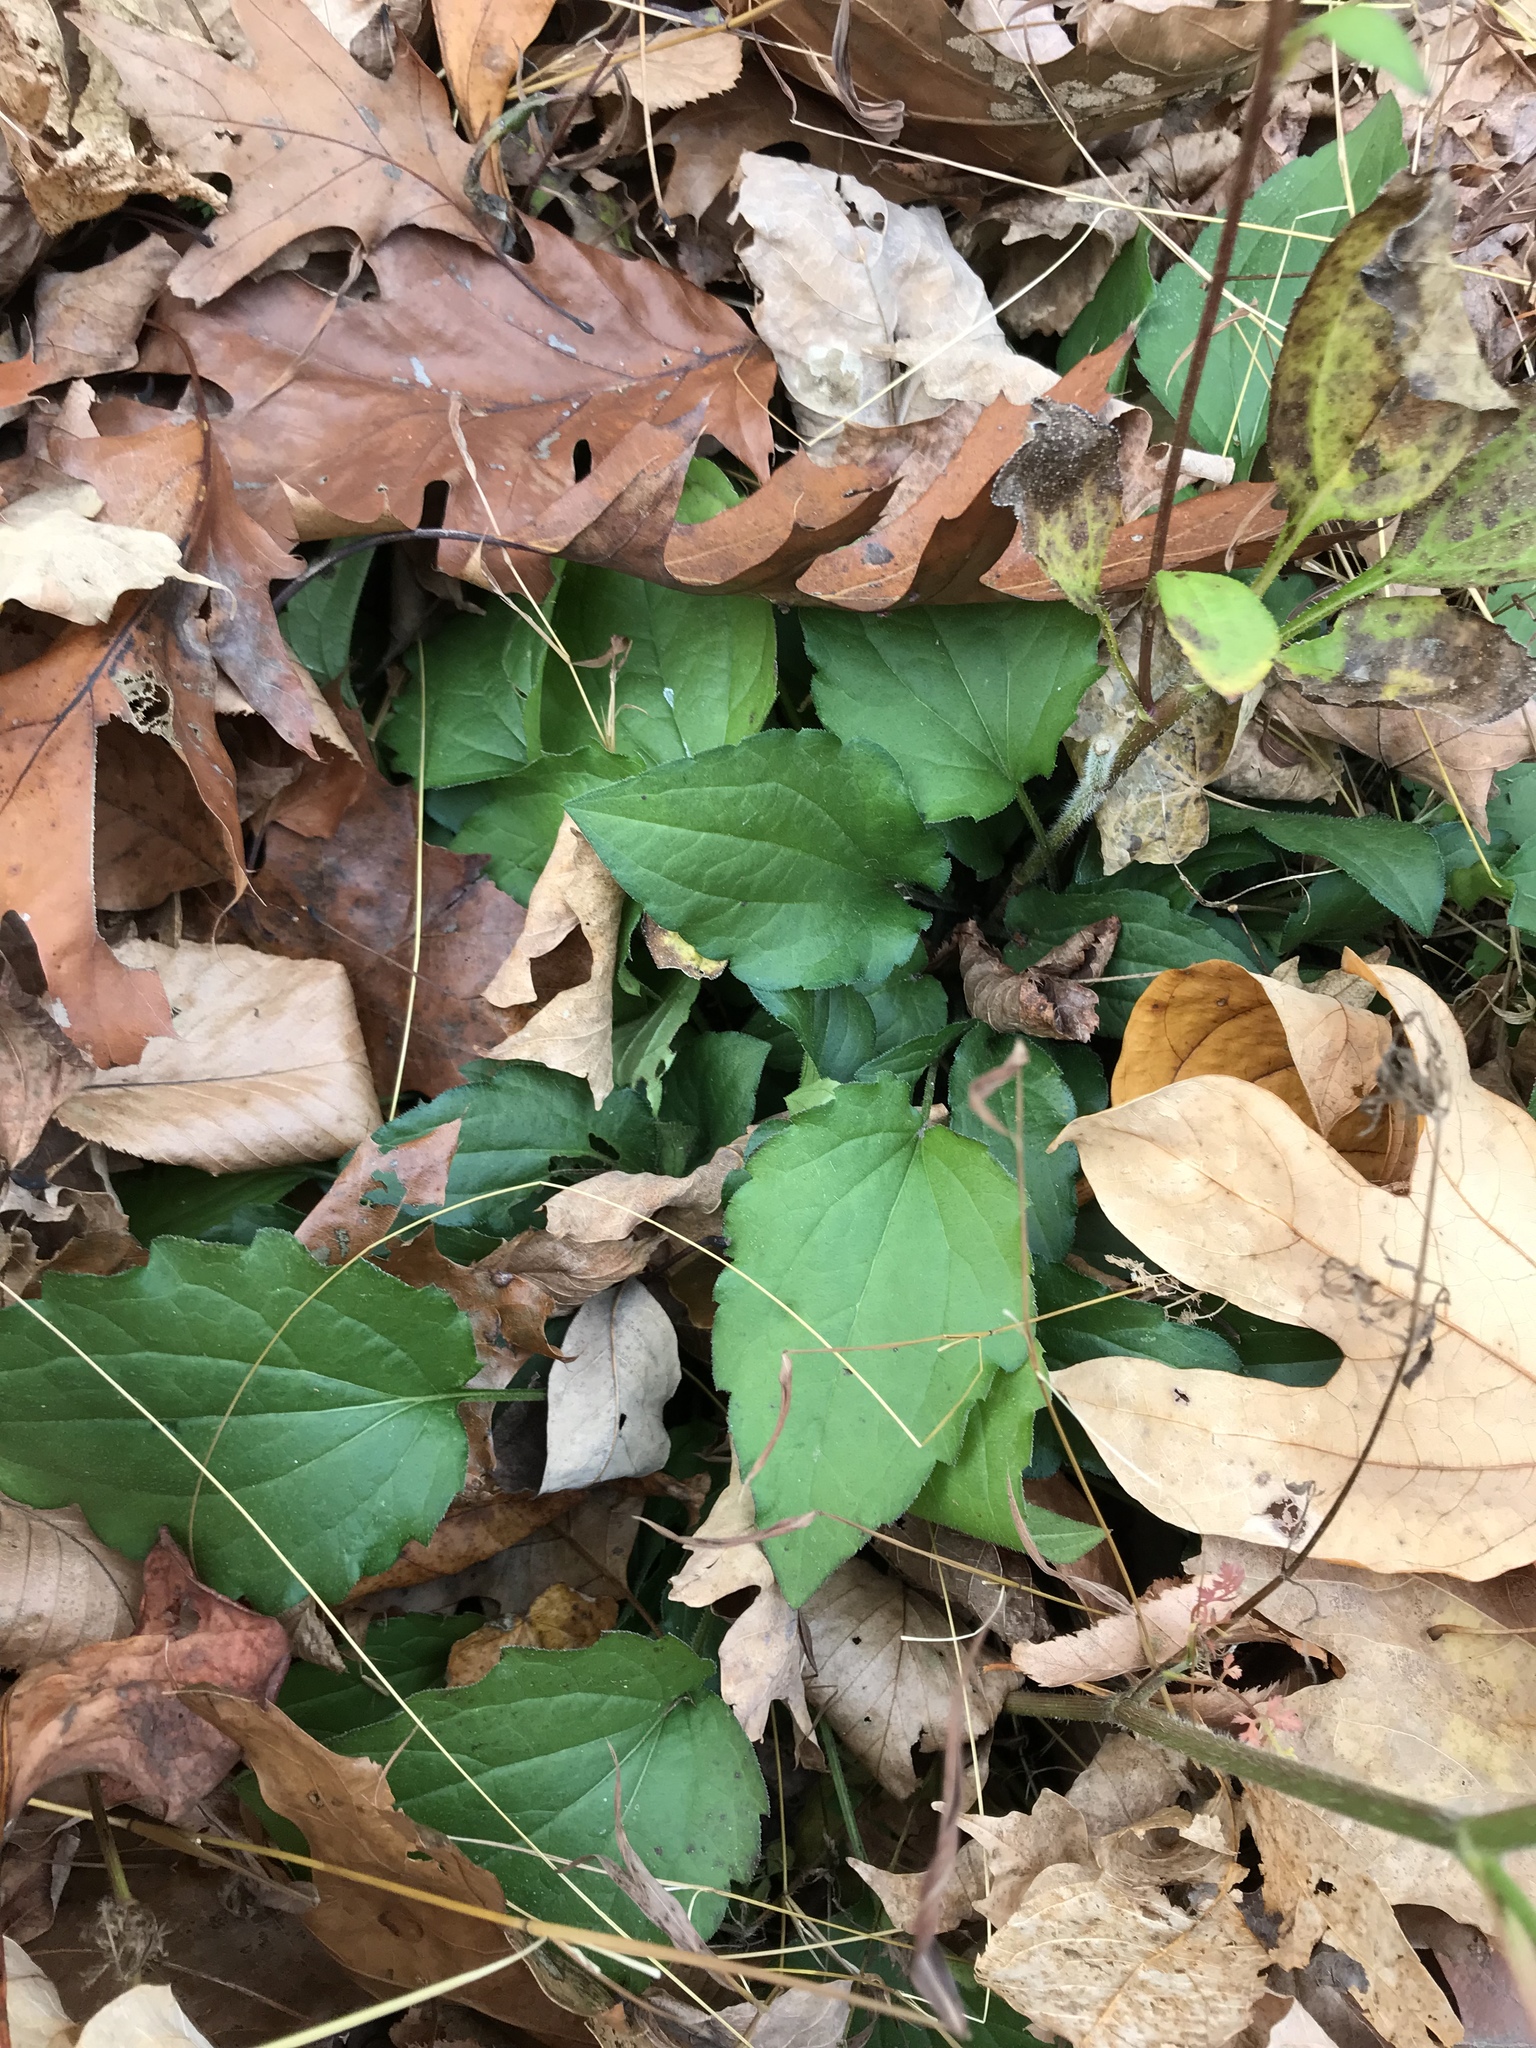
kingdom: Plantae
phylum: Tracheophyta
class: Magnoliopsida
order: Asterales
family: Asteraceae
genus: Rudbeckia
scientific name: Rudbeckia triloba
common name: Thin-leaved coneflower
